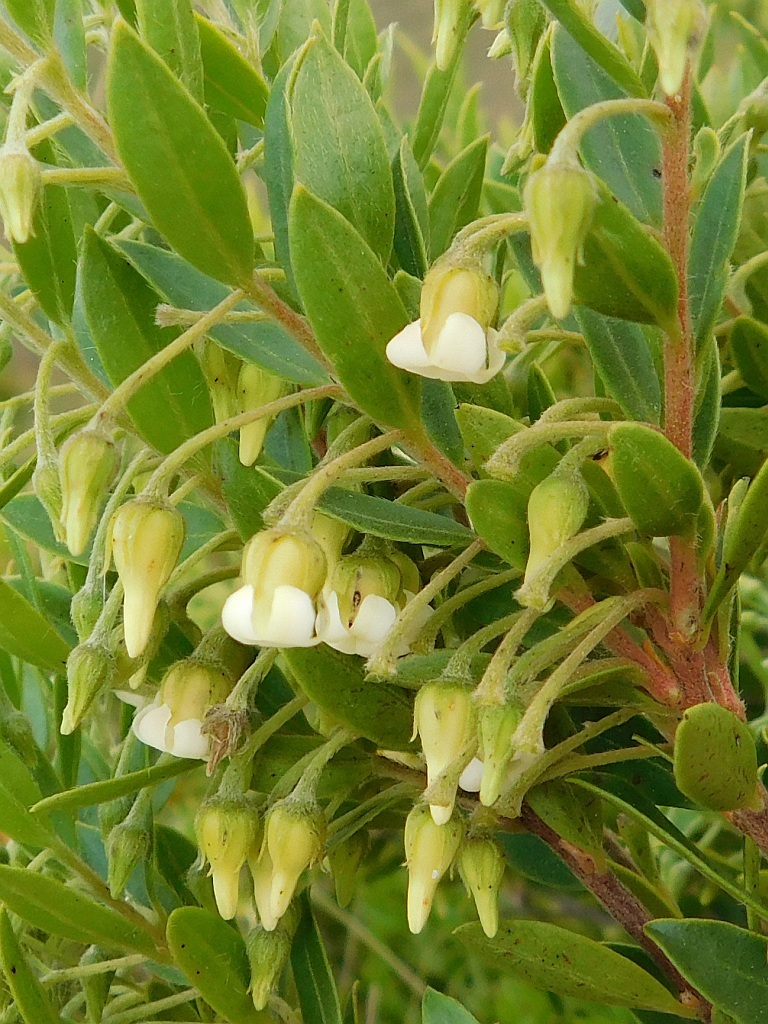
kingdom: Plantae
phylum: Tracheophyta
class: Magnoliopsida
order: Ericales
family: Ebenaceae
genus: Diospyros
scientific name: Diospyros glabra
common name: Fynbos star apple
